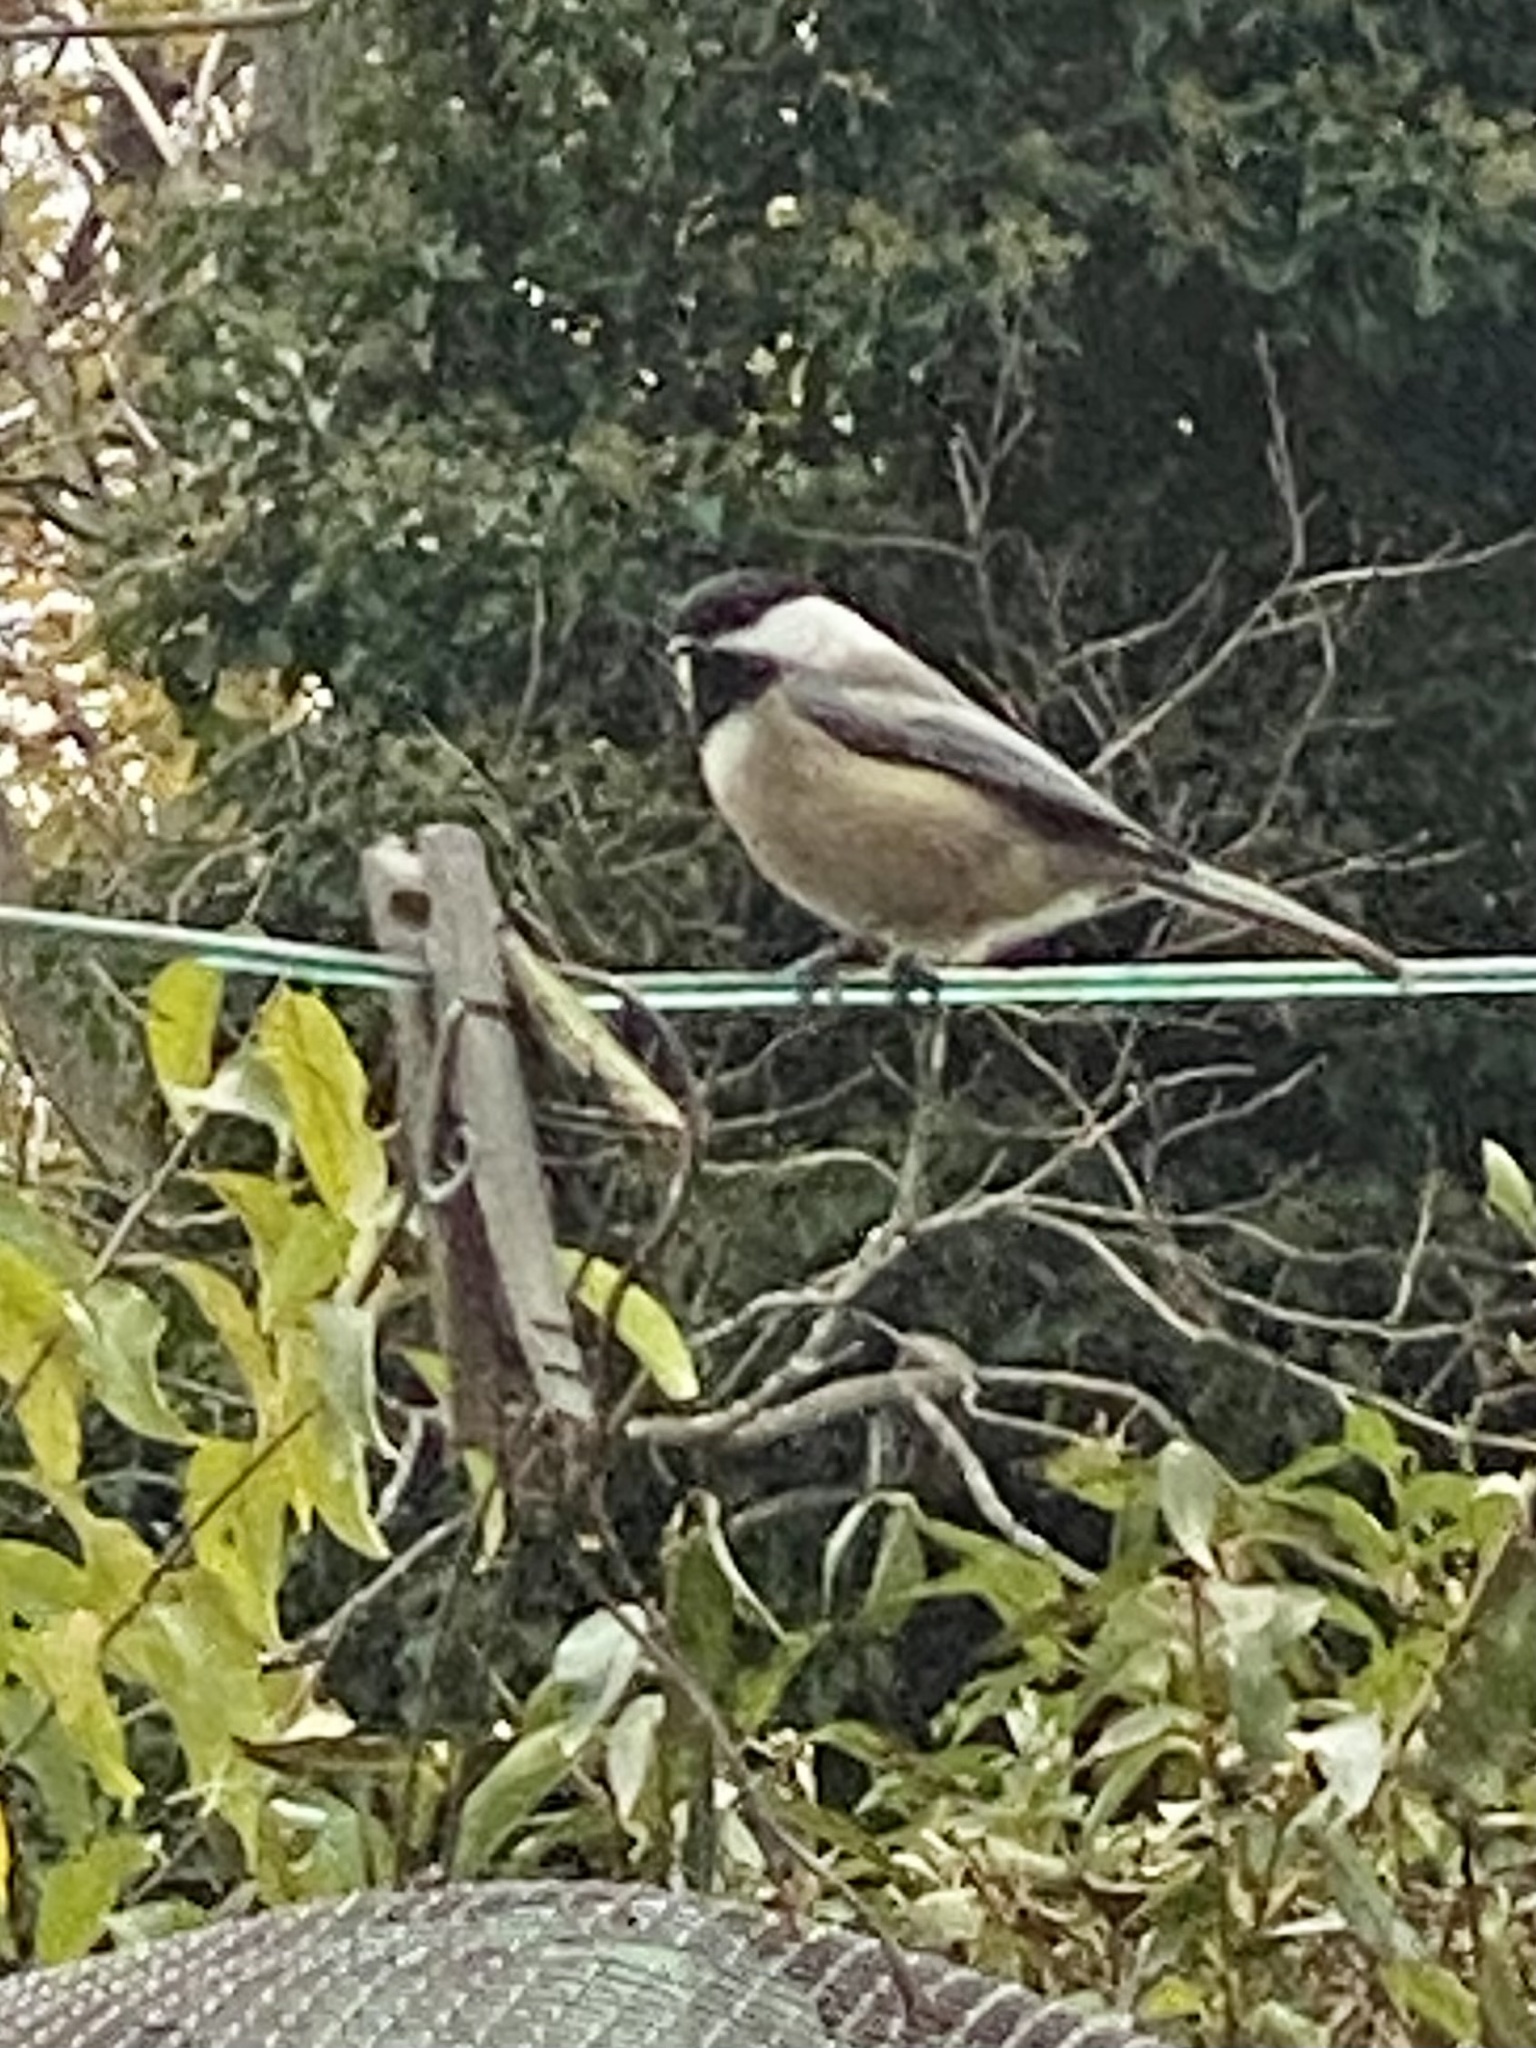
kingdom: Animalia
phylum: Chordata
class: Aves
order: Passeriformes
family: Paridae
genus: Poecile
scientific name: Poecile atricapillus
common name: Black-capped chickadee
